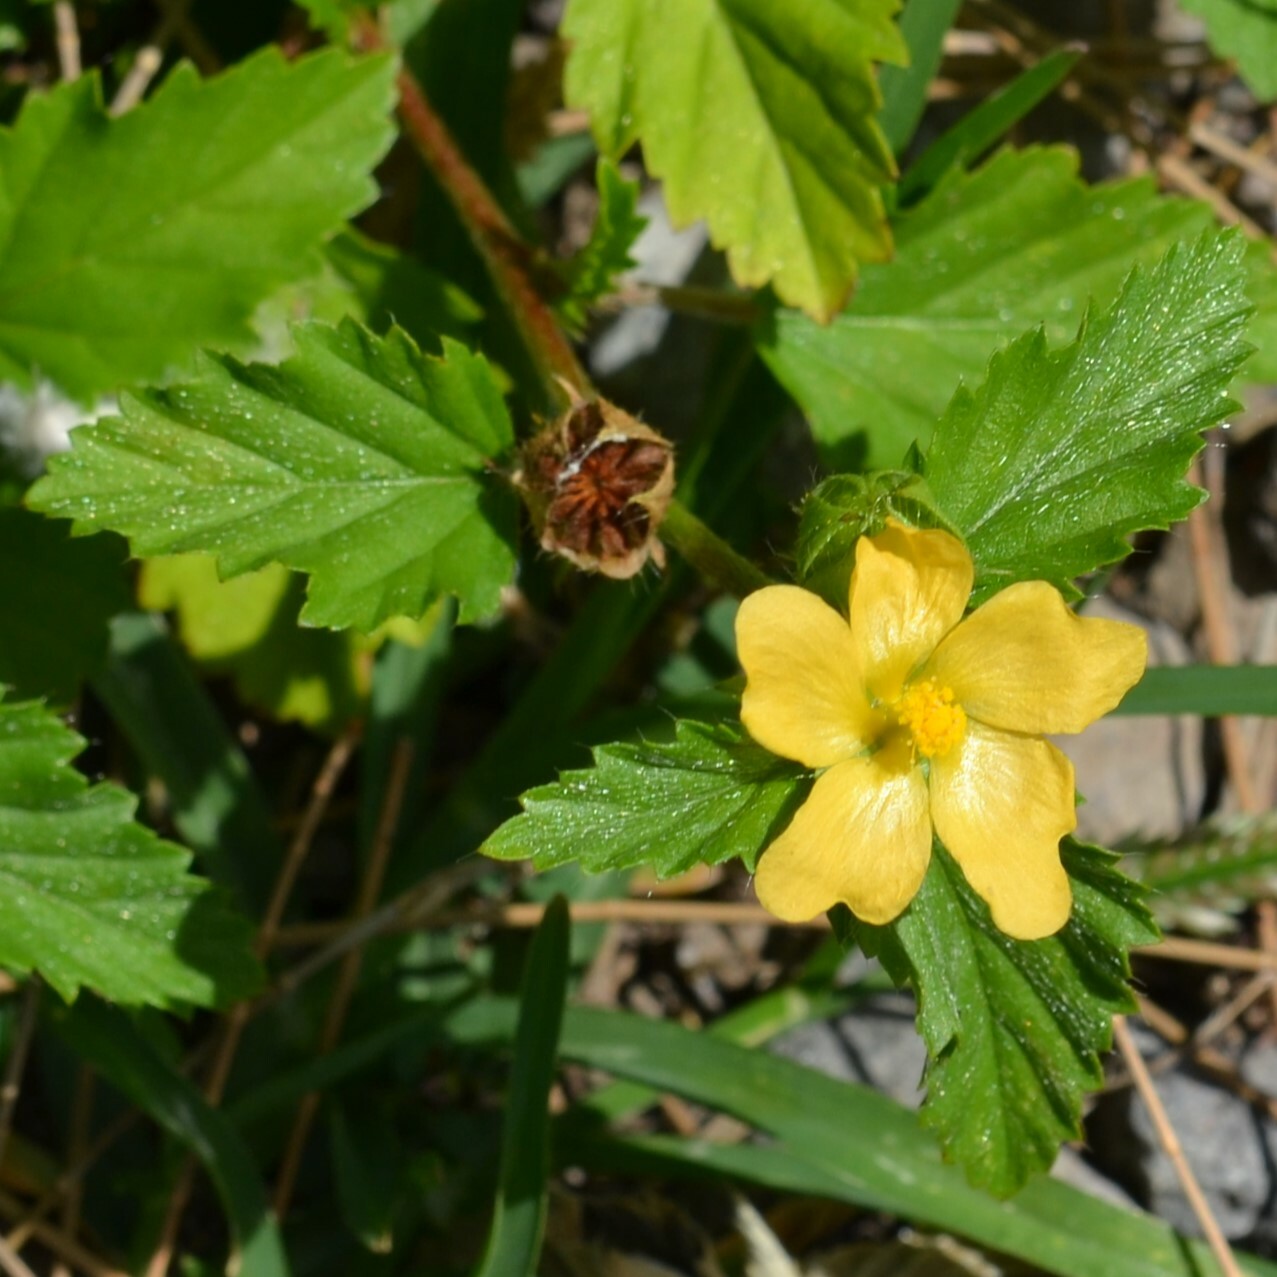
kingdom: Plantae
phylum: Tracheophyta
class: Magnoliopsida
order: Malvales
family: Malvaceae
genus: Malvastrum
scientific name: Malvastrum coromandelianum
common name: Threelobe false mallow
